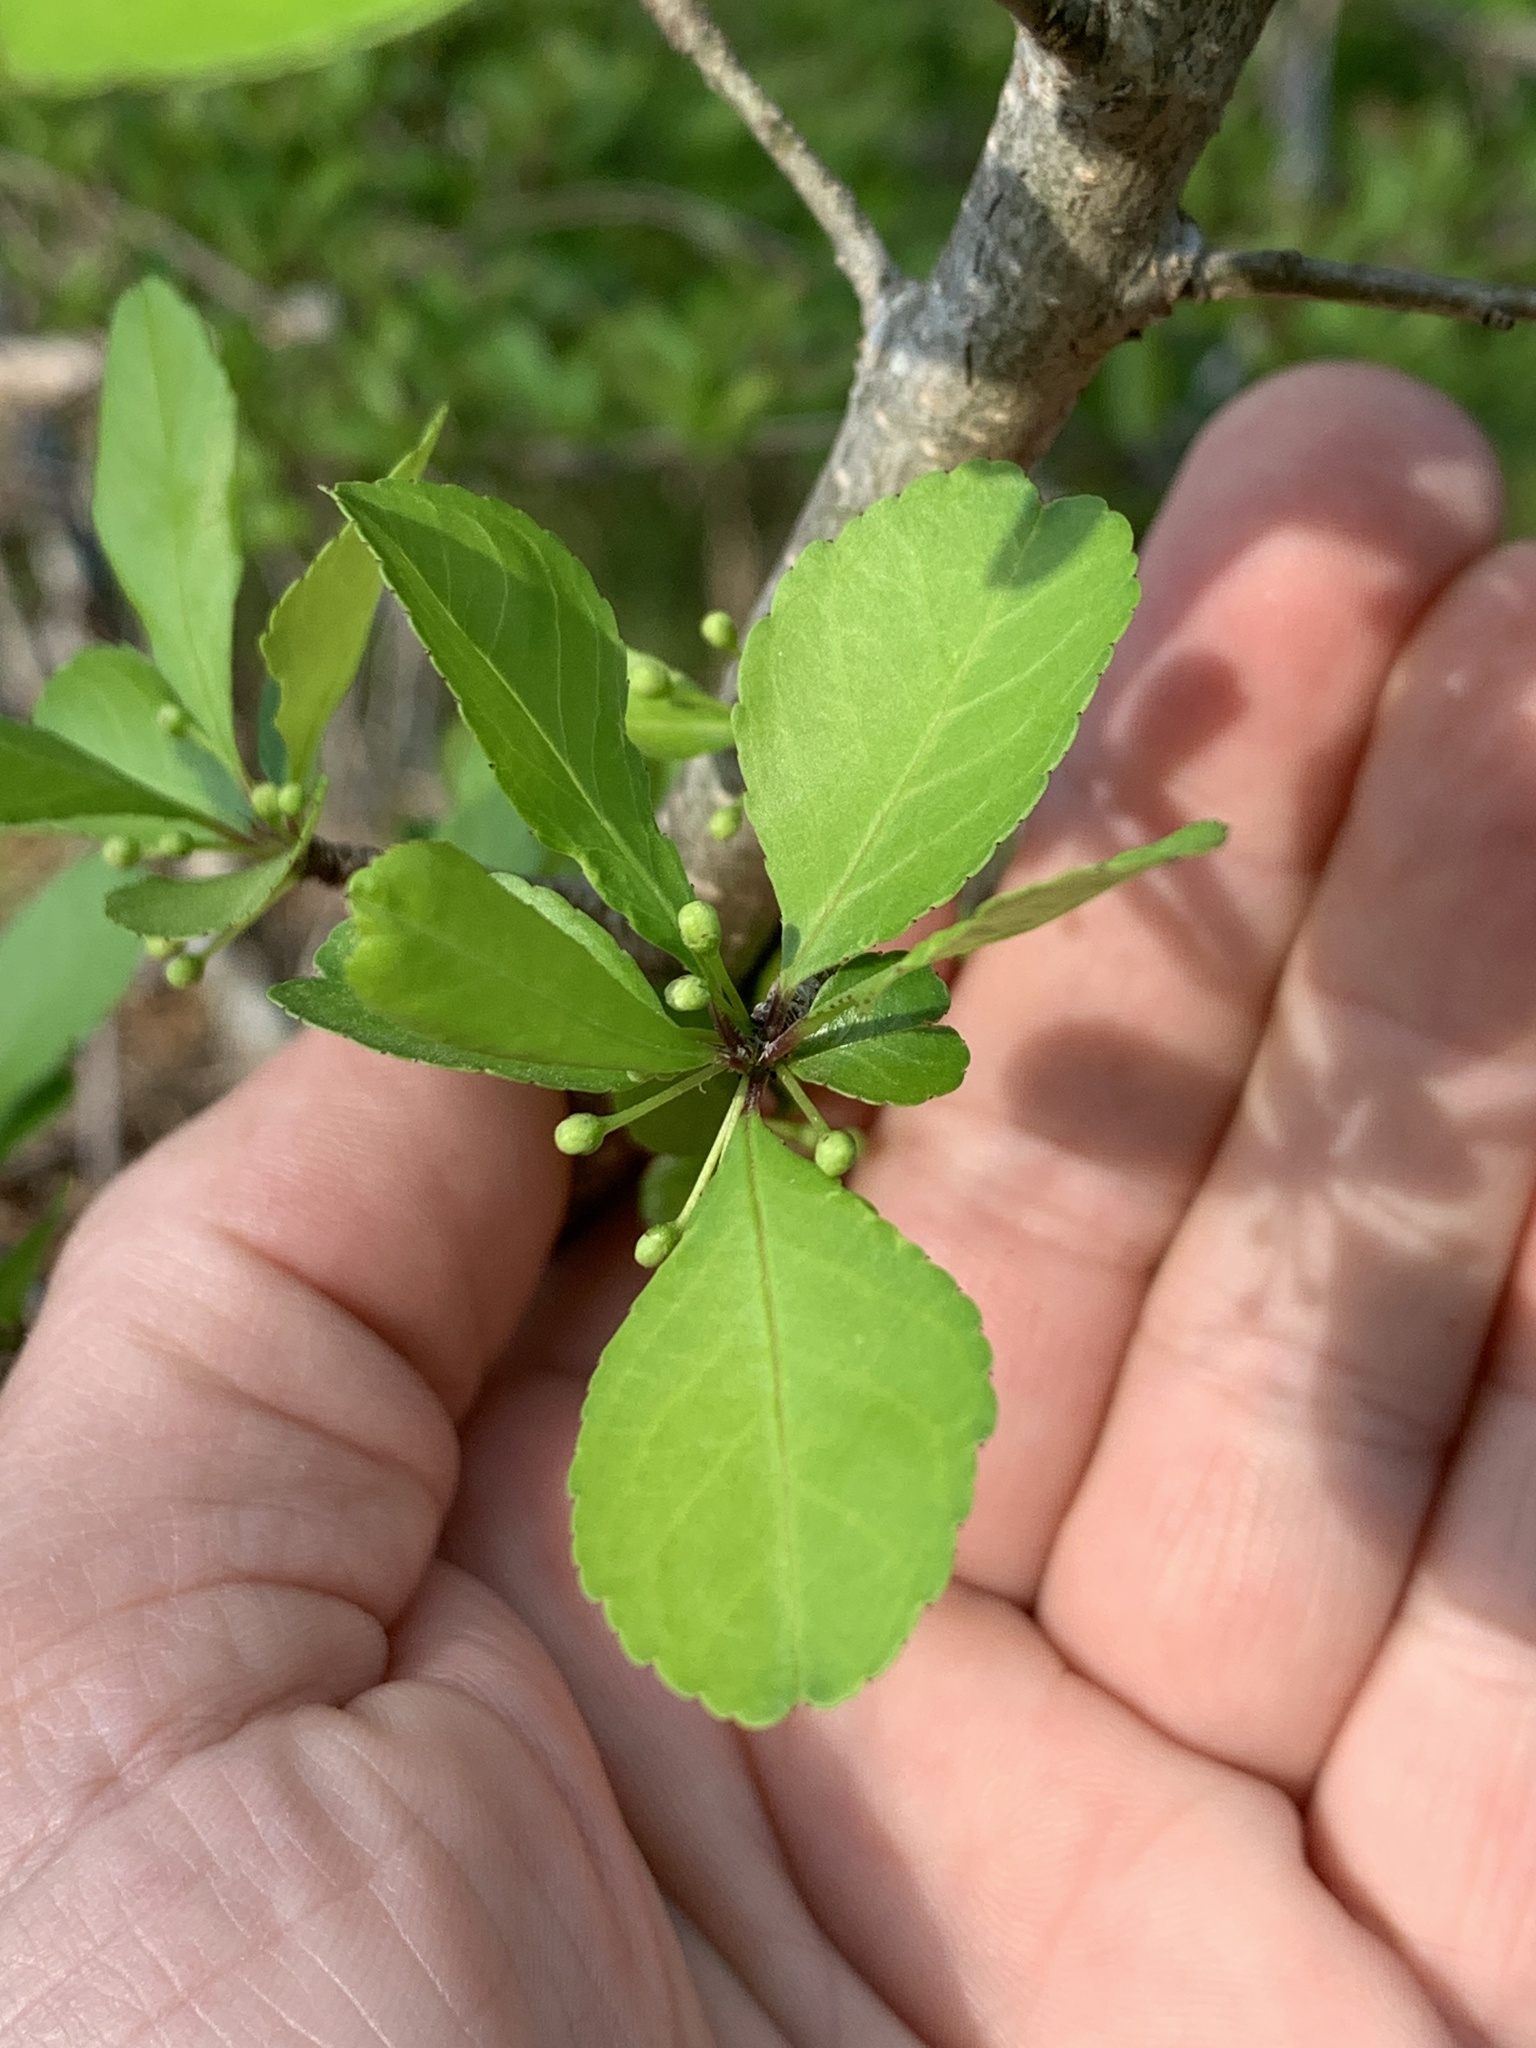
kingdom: Plantae
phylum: Tracheophyta
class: Magnoliopsida
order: Aquifoliales
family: Aquifoliaceae
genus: Ilex
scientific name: Ilex decidua
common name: Possum-haw
